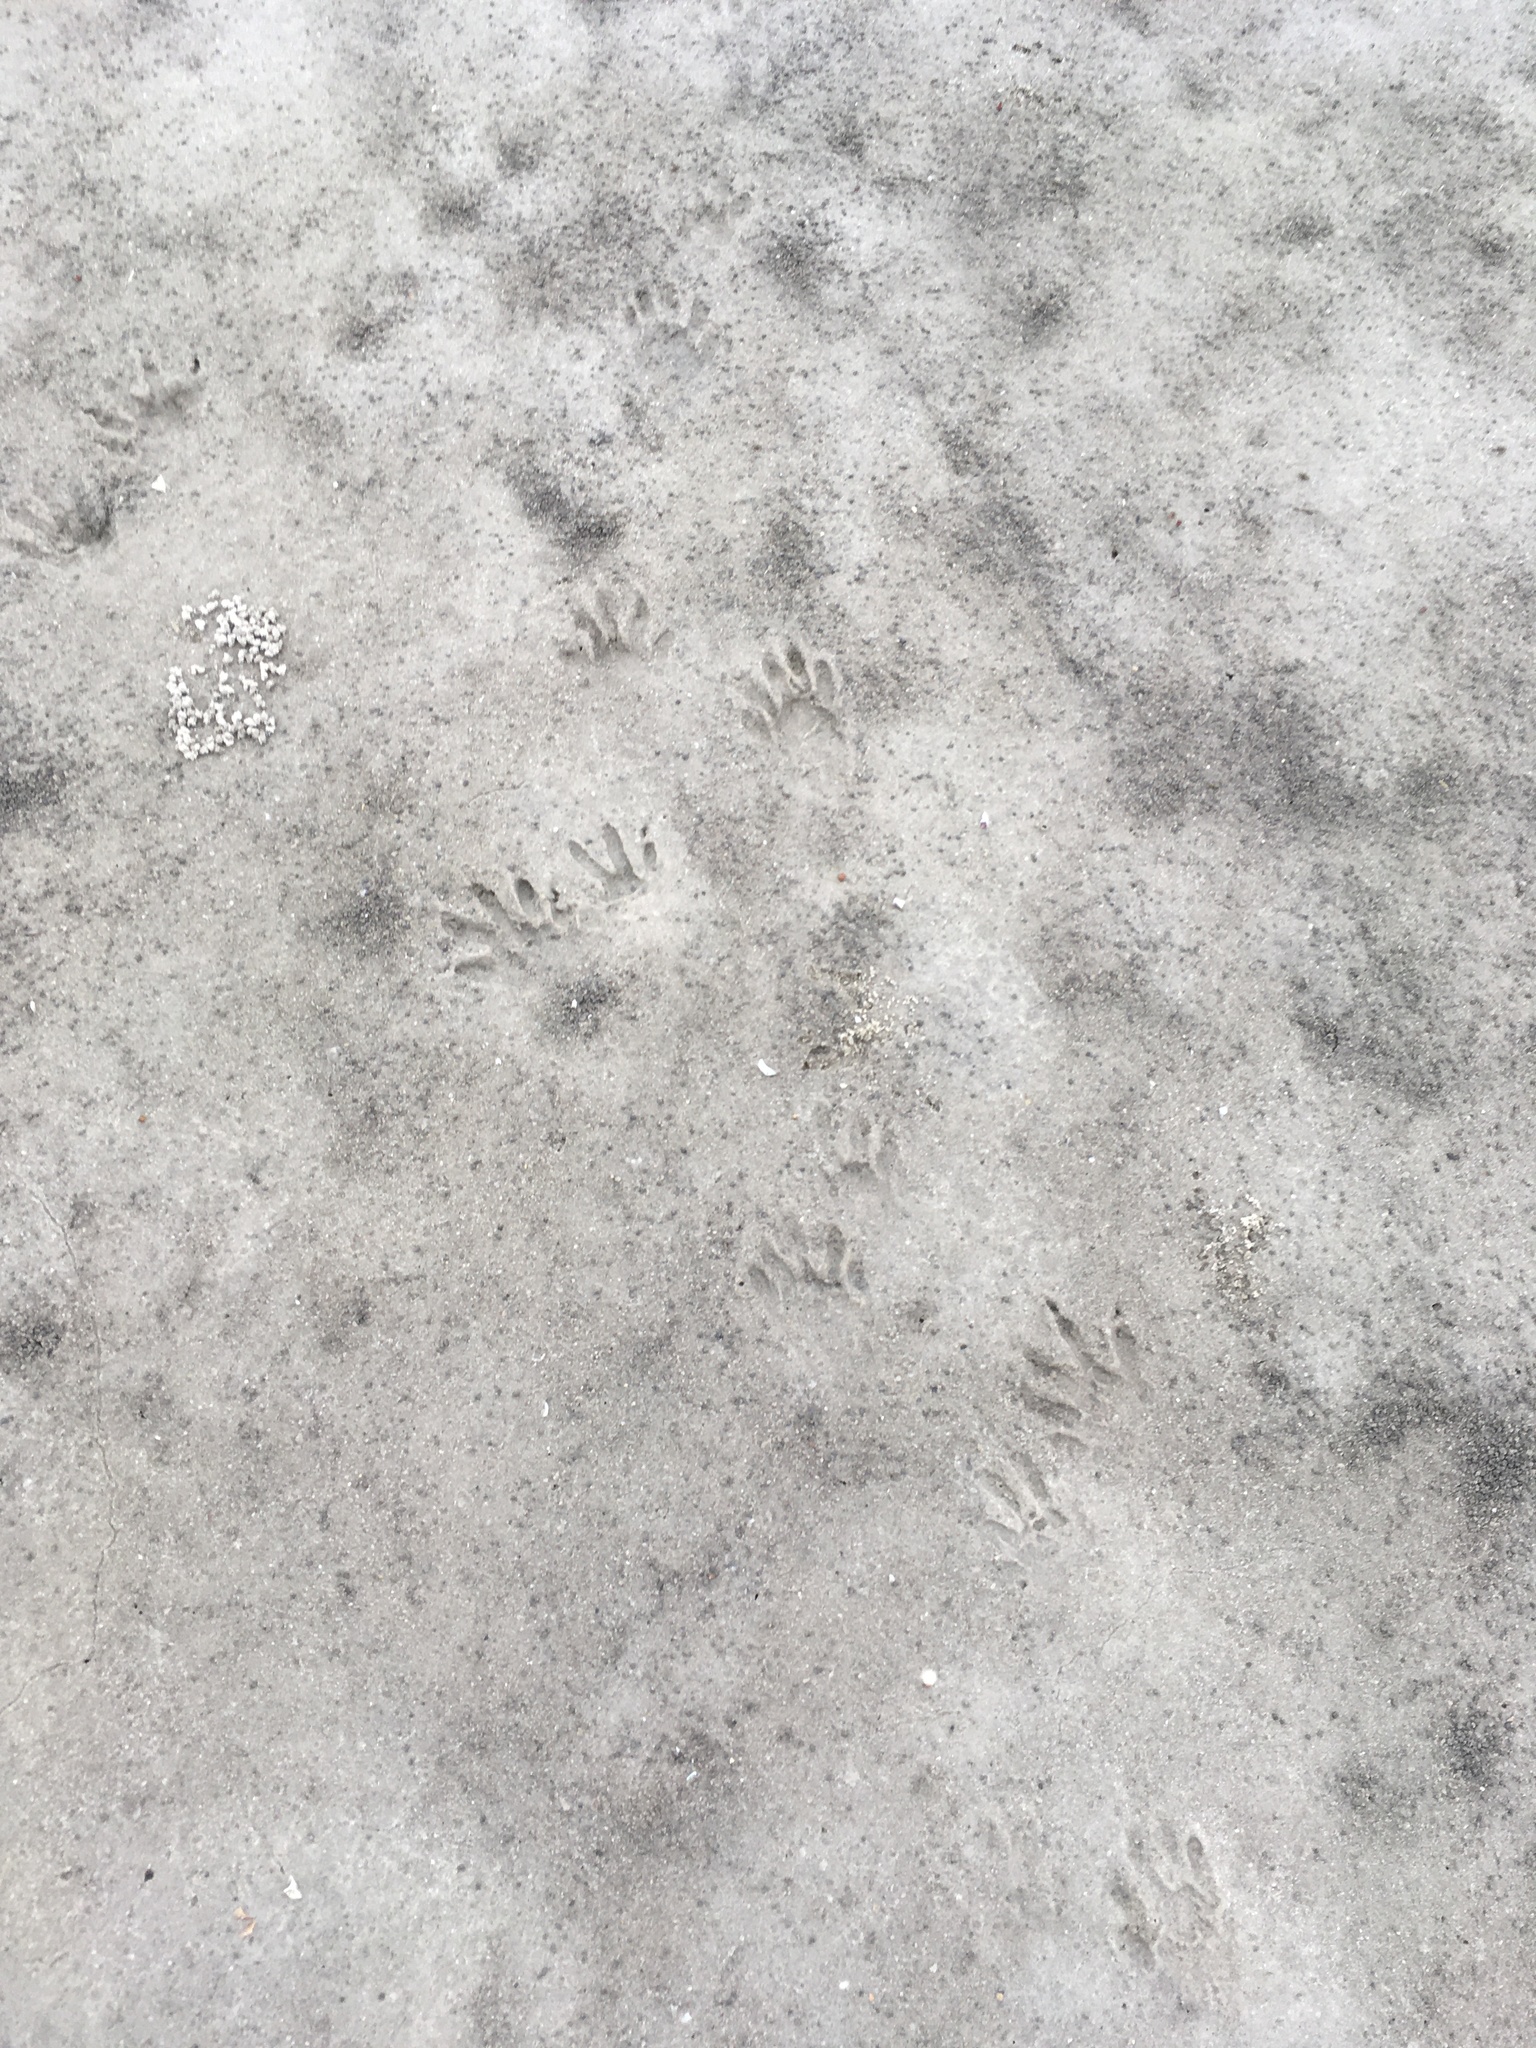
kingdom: Animalia
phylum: Chordata
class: Mammalia
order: Carnivora
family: Procyonidae
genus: Procyon
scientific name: Procyon lotor
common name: Raccoon
